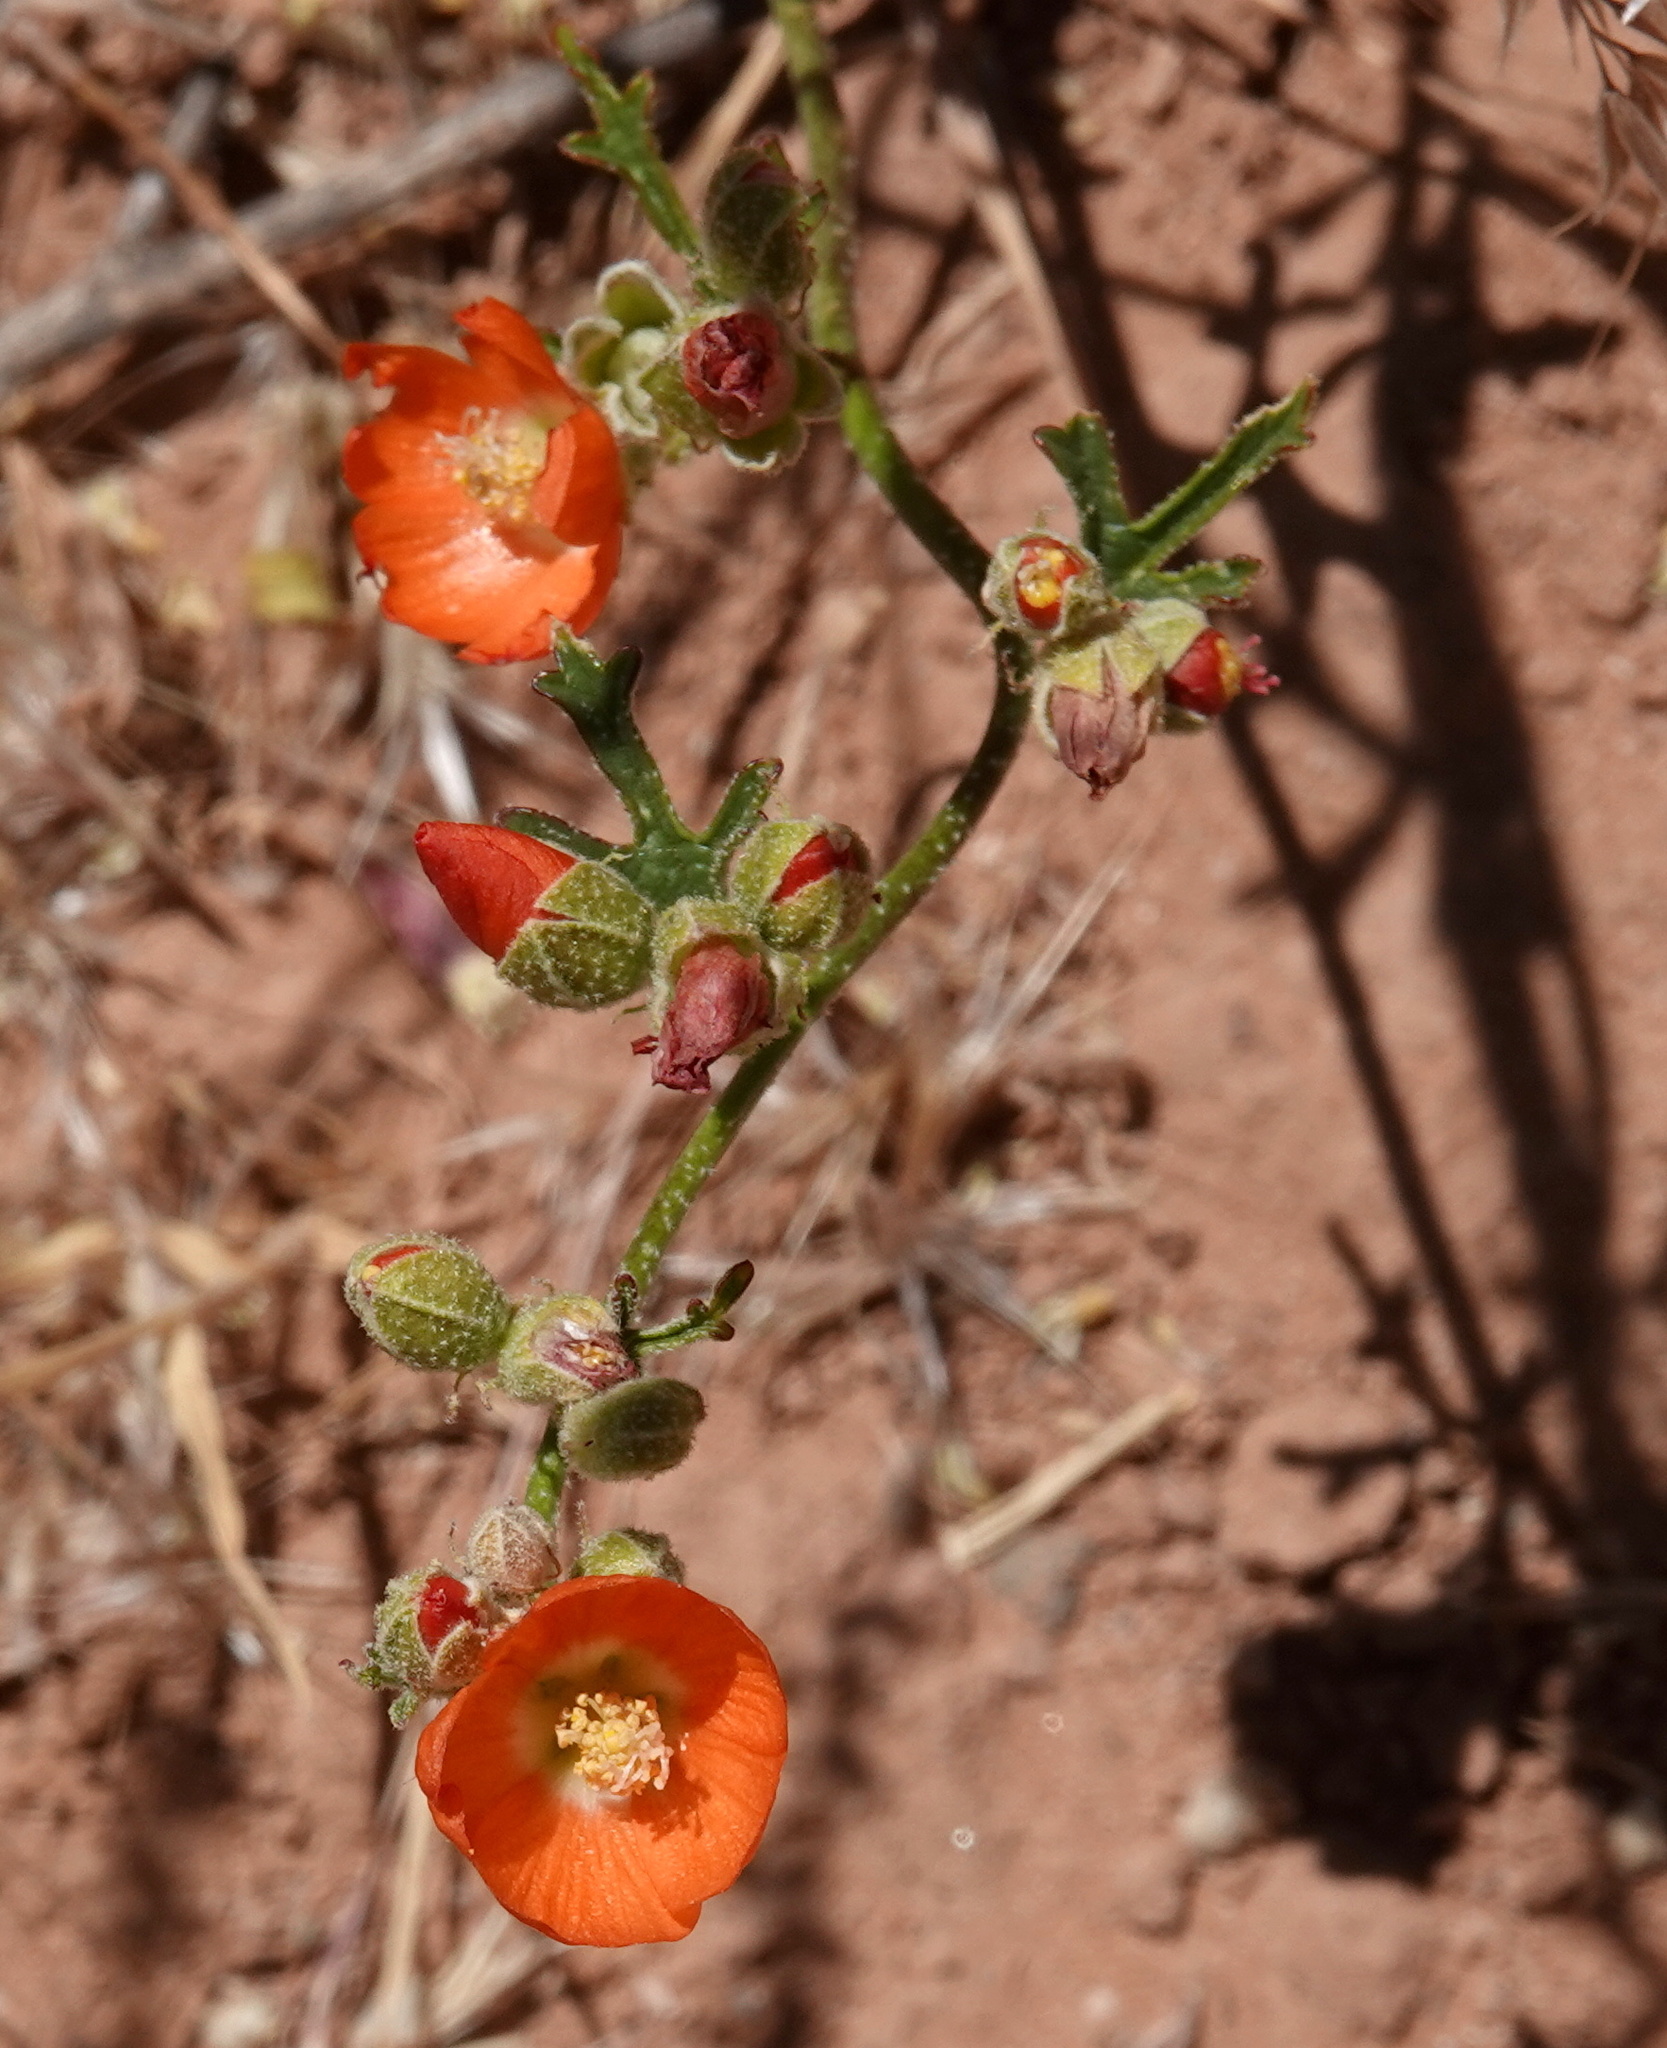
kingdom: Plantae
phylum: Tracheophyta
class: Magnoliopsida
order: Malvales
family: Malvaceae
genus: Sphaeralcea
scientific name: Sphaeralcea grossulariifolia
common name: Current-leaf globe-mallow
